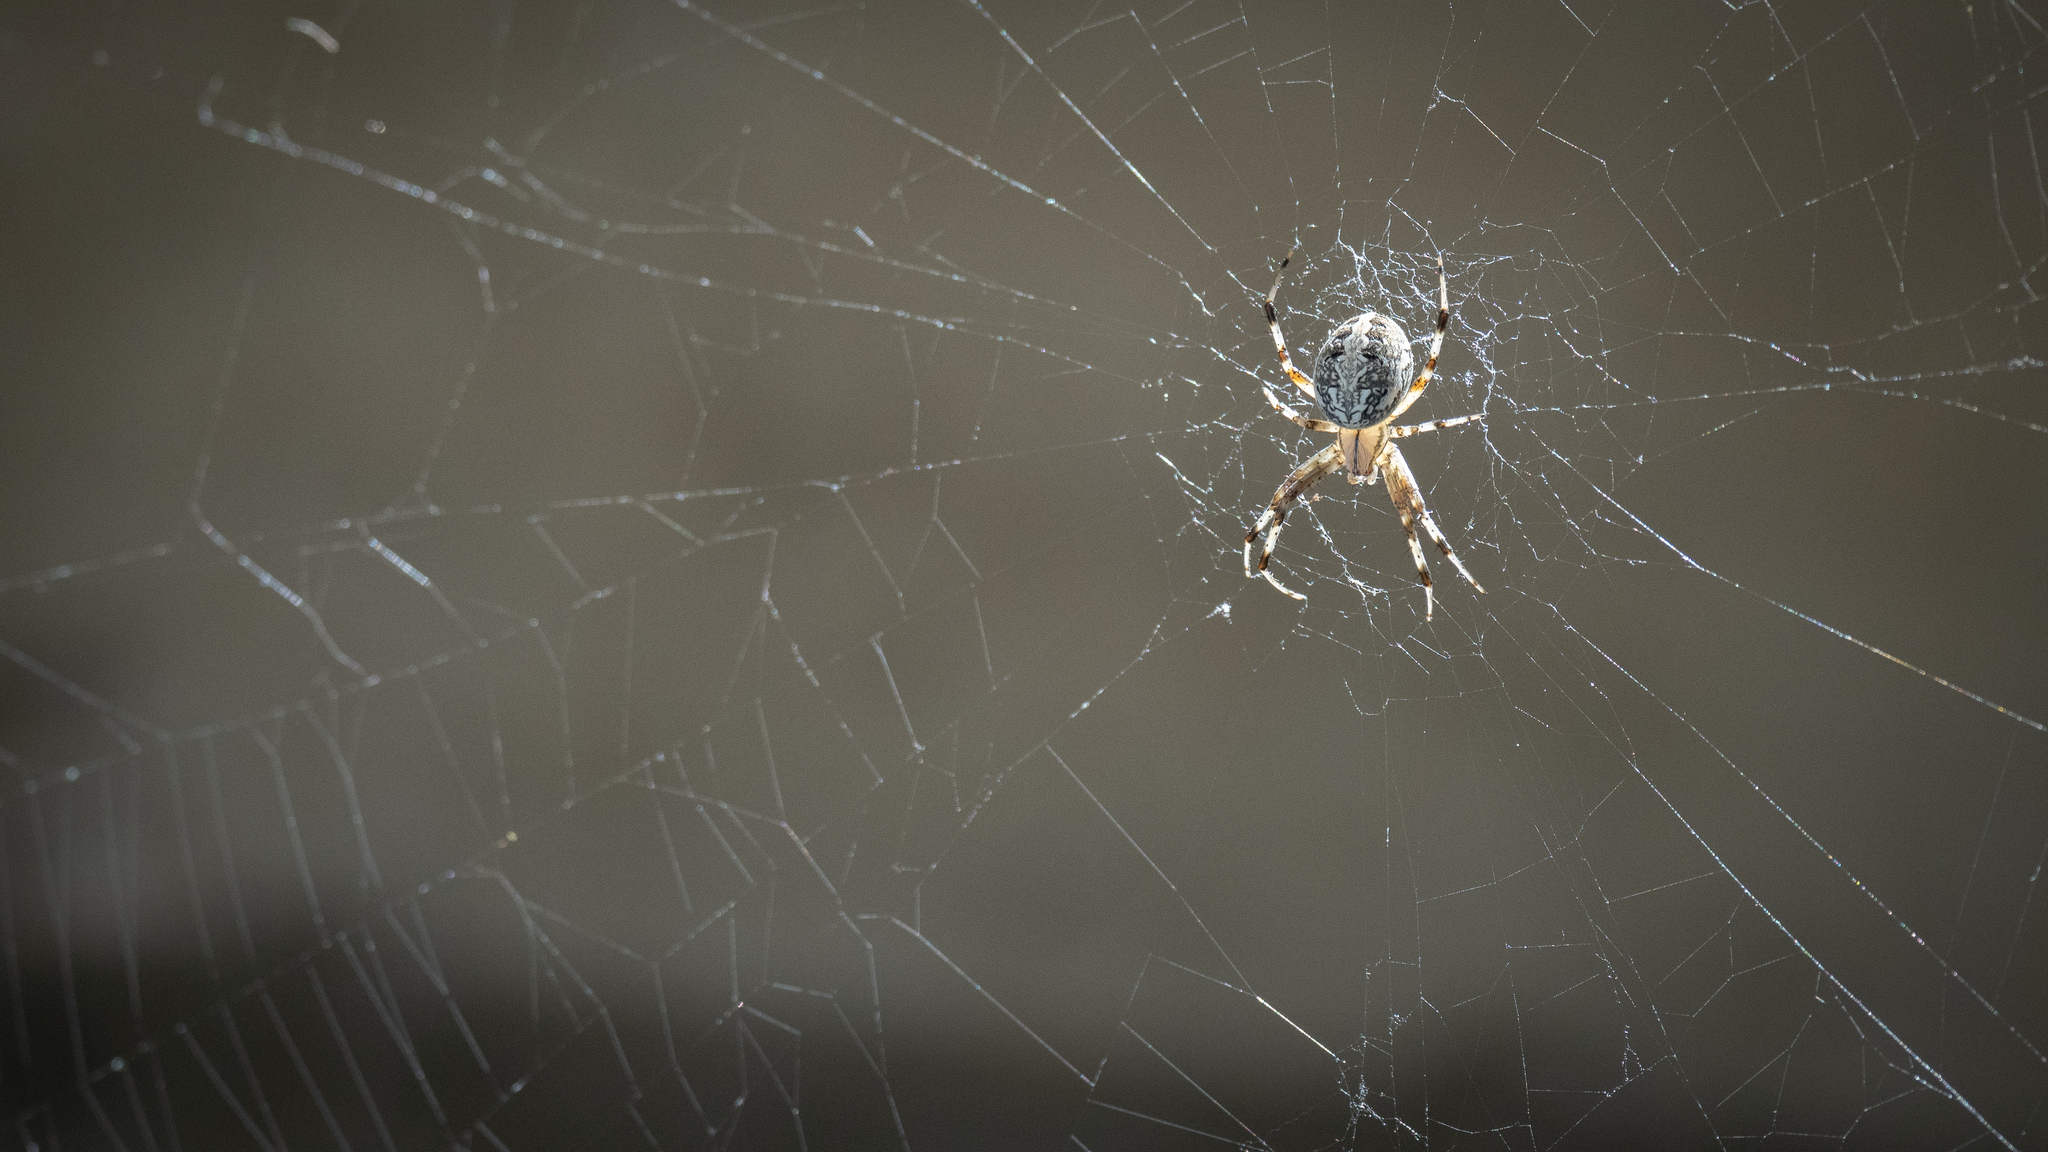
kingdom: Animalia
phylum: Arthropoda
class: Arachnida
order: Araneae
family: Araneidae
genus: Neoscona
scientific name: Neoscona oaxacensis
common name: Orb weavers
